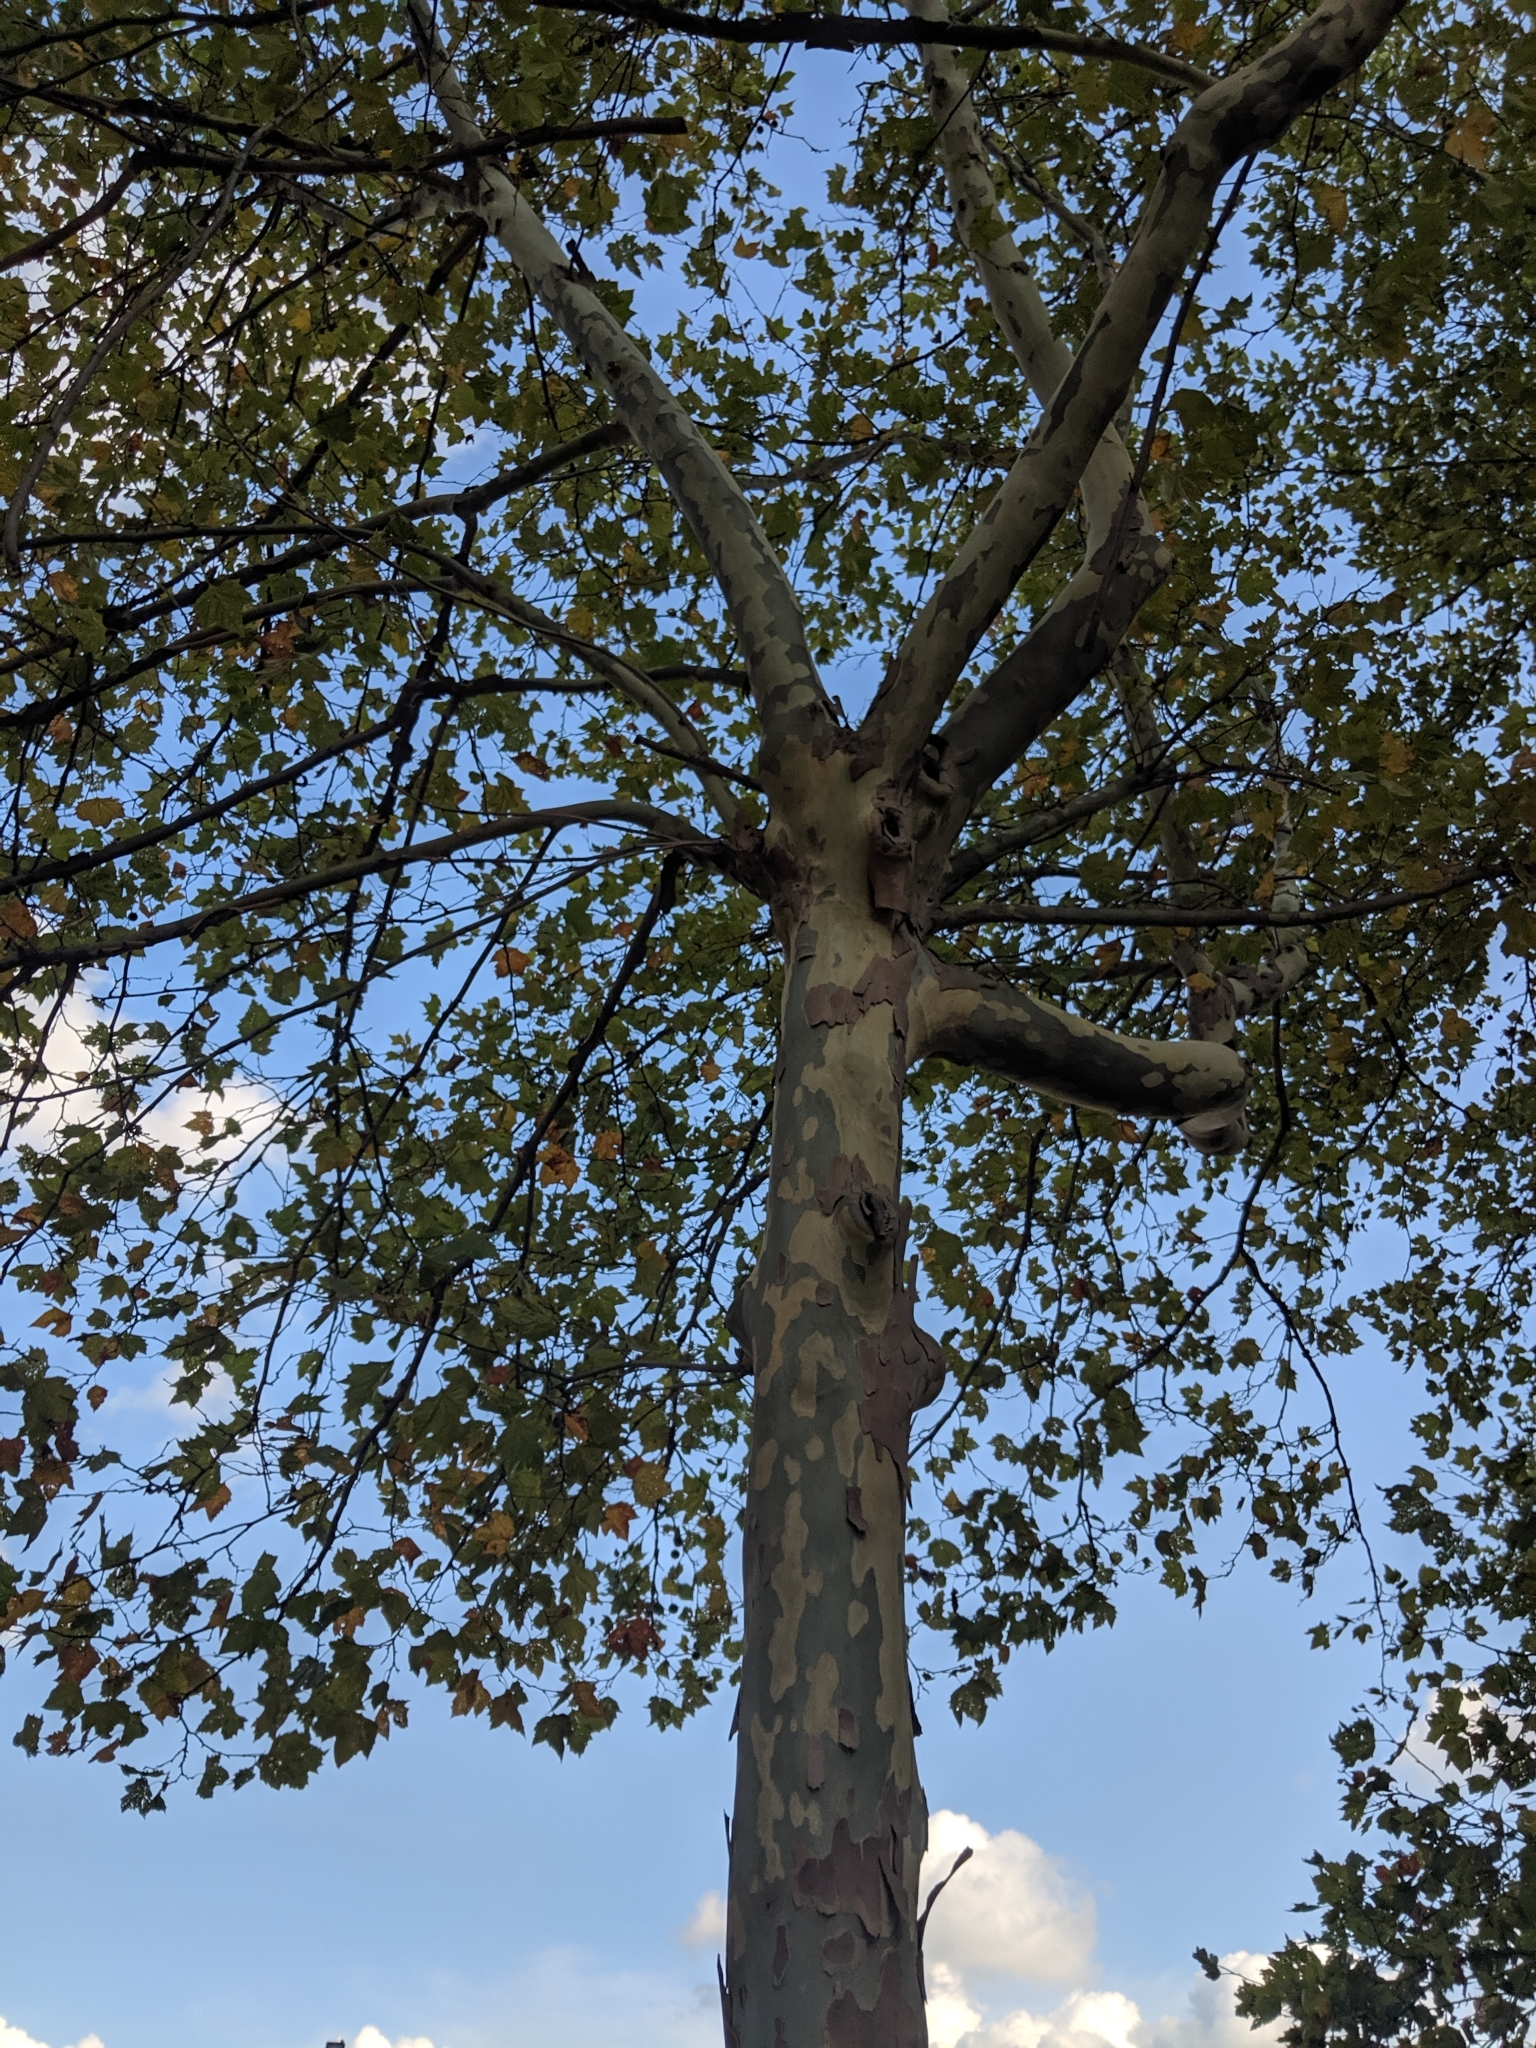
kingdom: Plantae
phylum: Tracheophyta
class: Magnoliopsida
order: Proteales
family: Platanaceae
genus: Platanus
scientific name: Platanus occidentalis
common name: American sycamore
